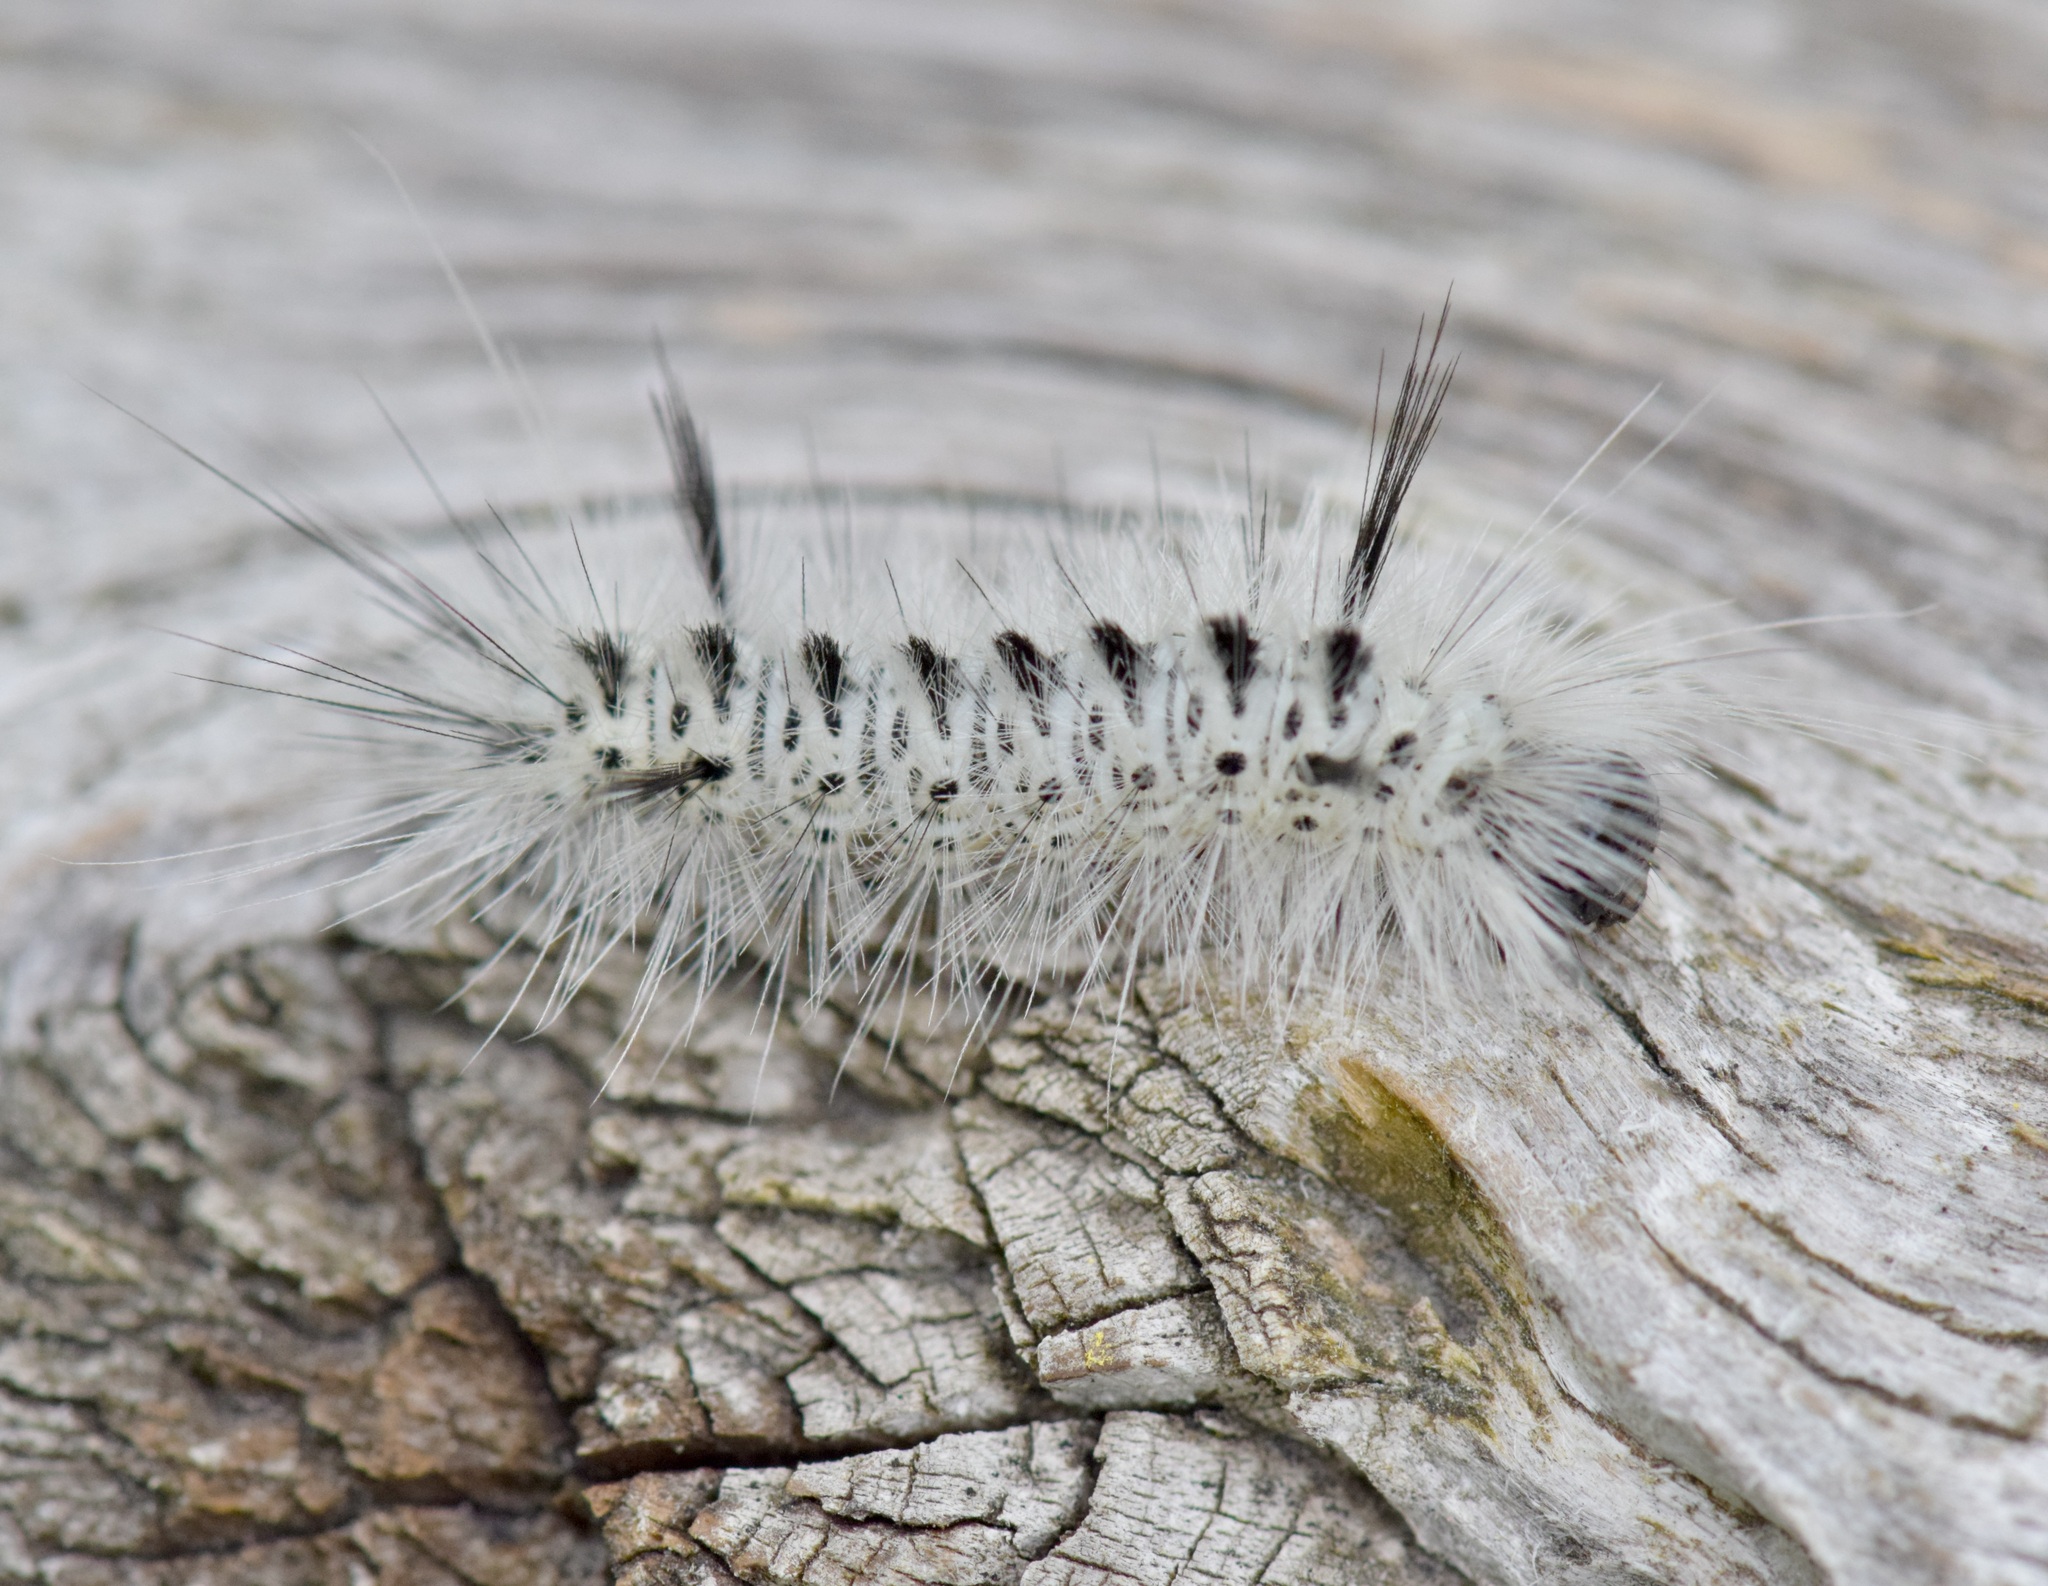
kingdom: Animalia
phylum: Arthropoda
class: Insecta
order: Lepidoptera
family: Erebidae
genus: Lophocampa
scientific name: Lophocampa caryae
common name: Hickory tussock moth
